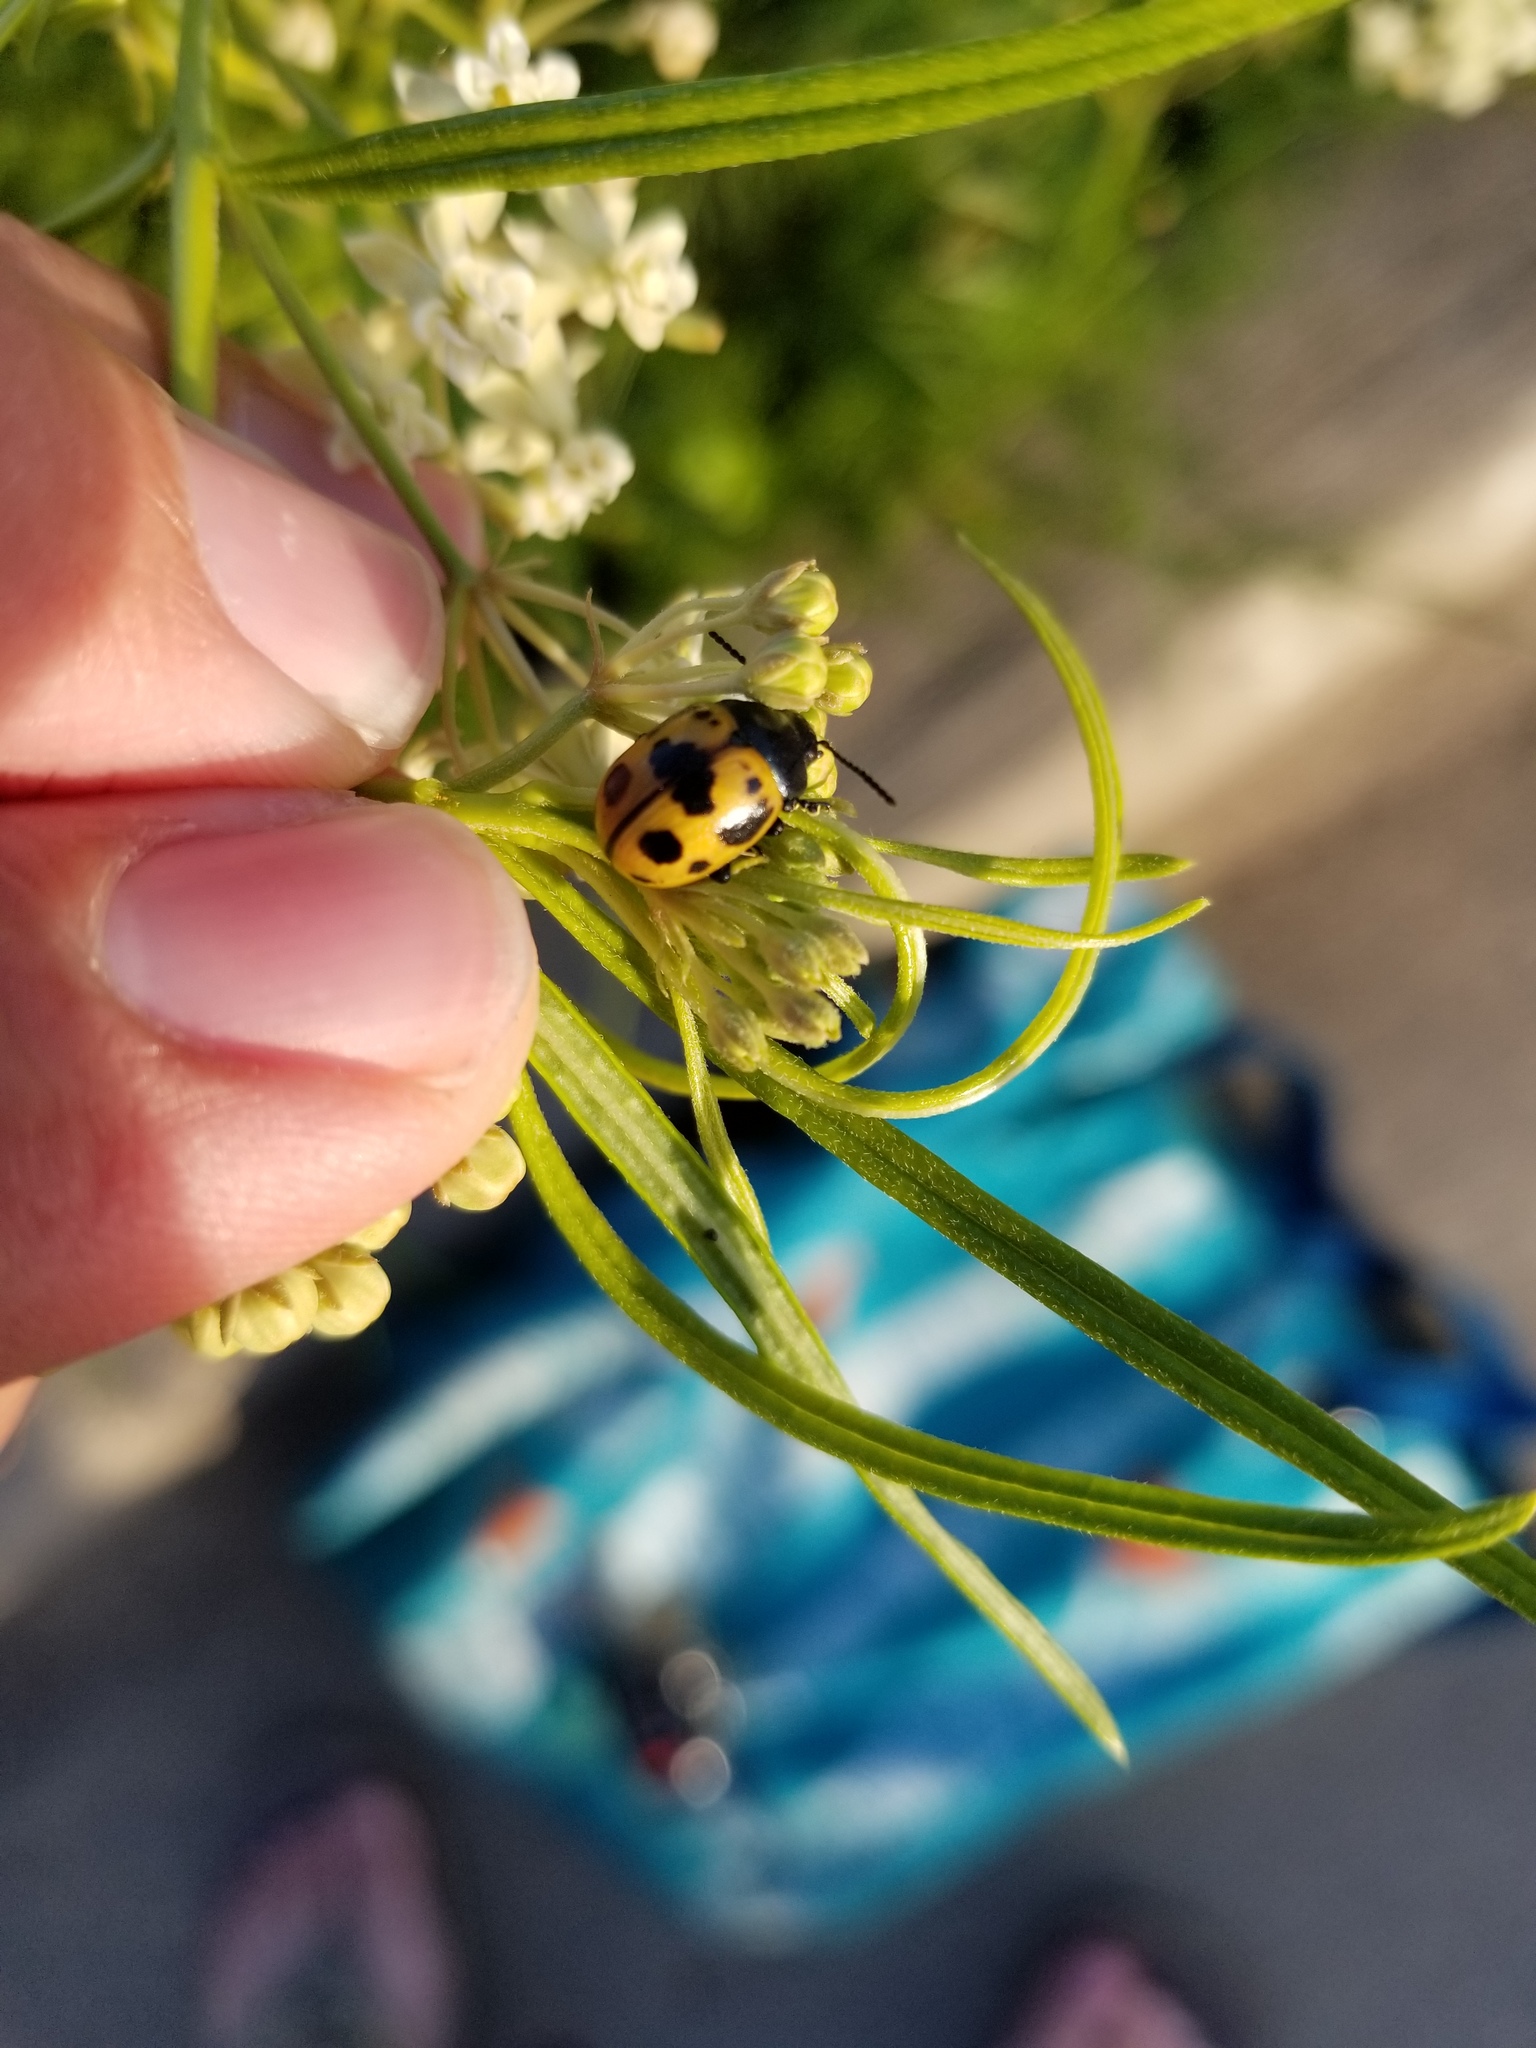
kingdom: Animalia
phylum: Arthropoda
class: Insecta
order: Coleoptera
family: Chrysomelidae
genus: Labidomera
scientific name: Labidomera clivicollis
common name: Swamp milkweed leaf beetle
